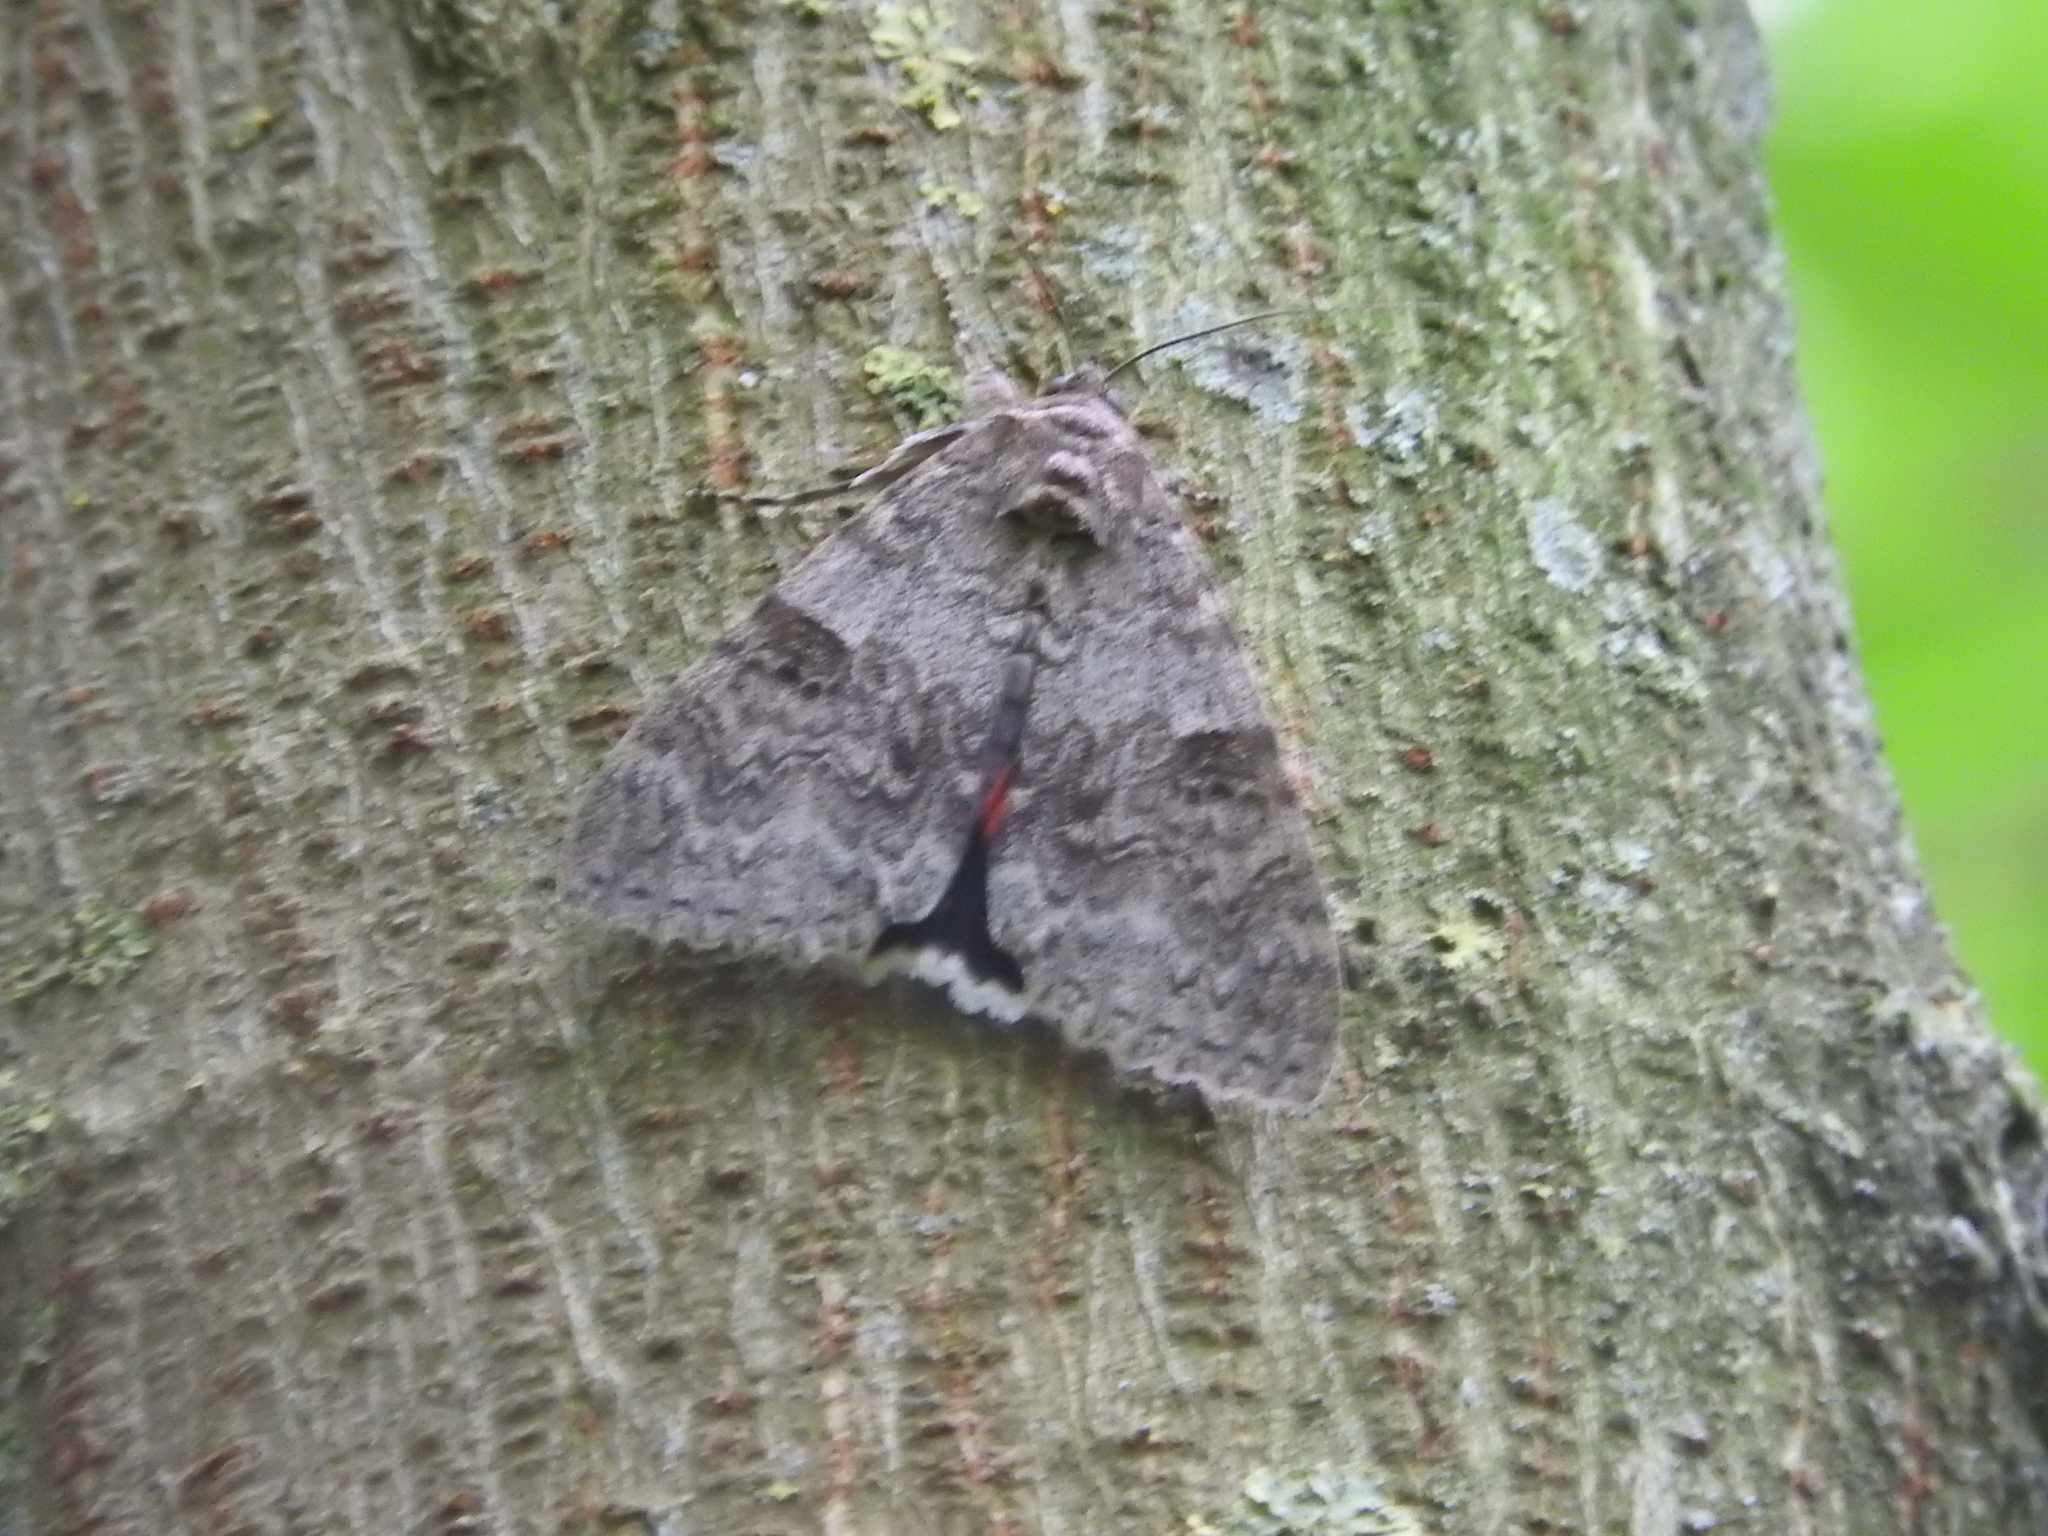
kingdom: Animalia
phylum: Arthropoda
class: Insecta
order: Lepidoptera
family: Erebidae
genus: Catocala
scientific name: Catocala nupta
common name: Red underwing
